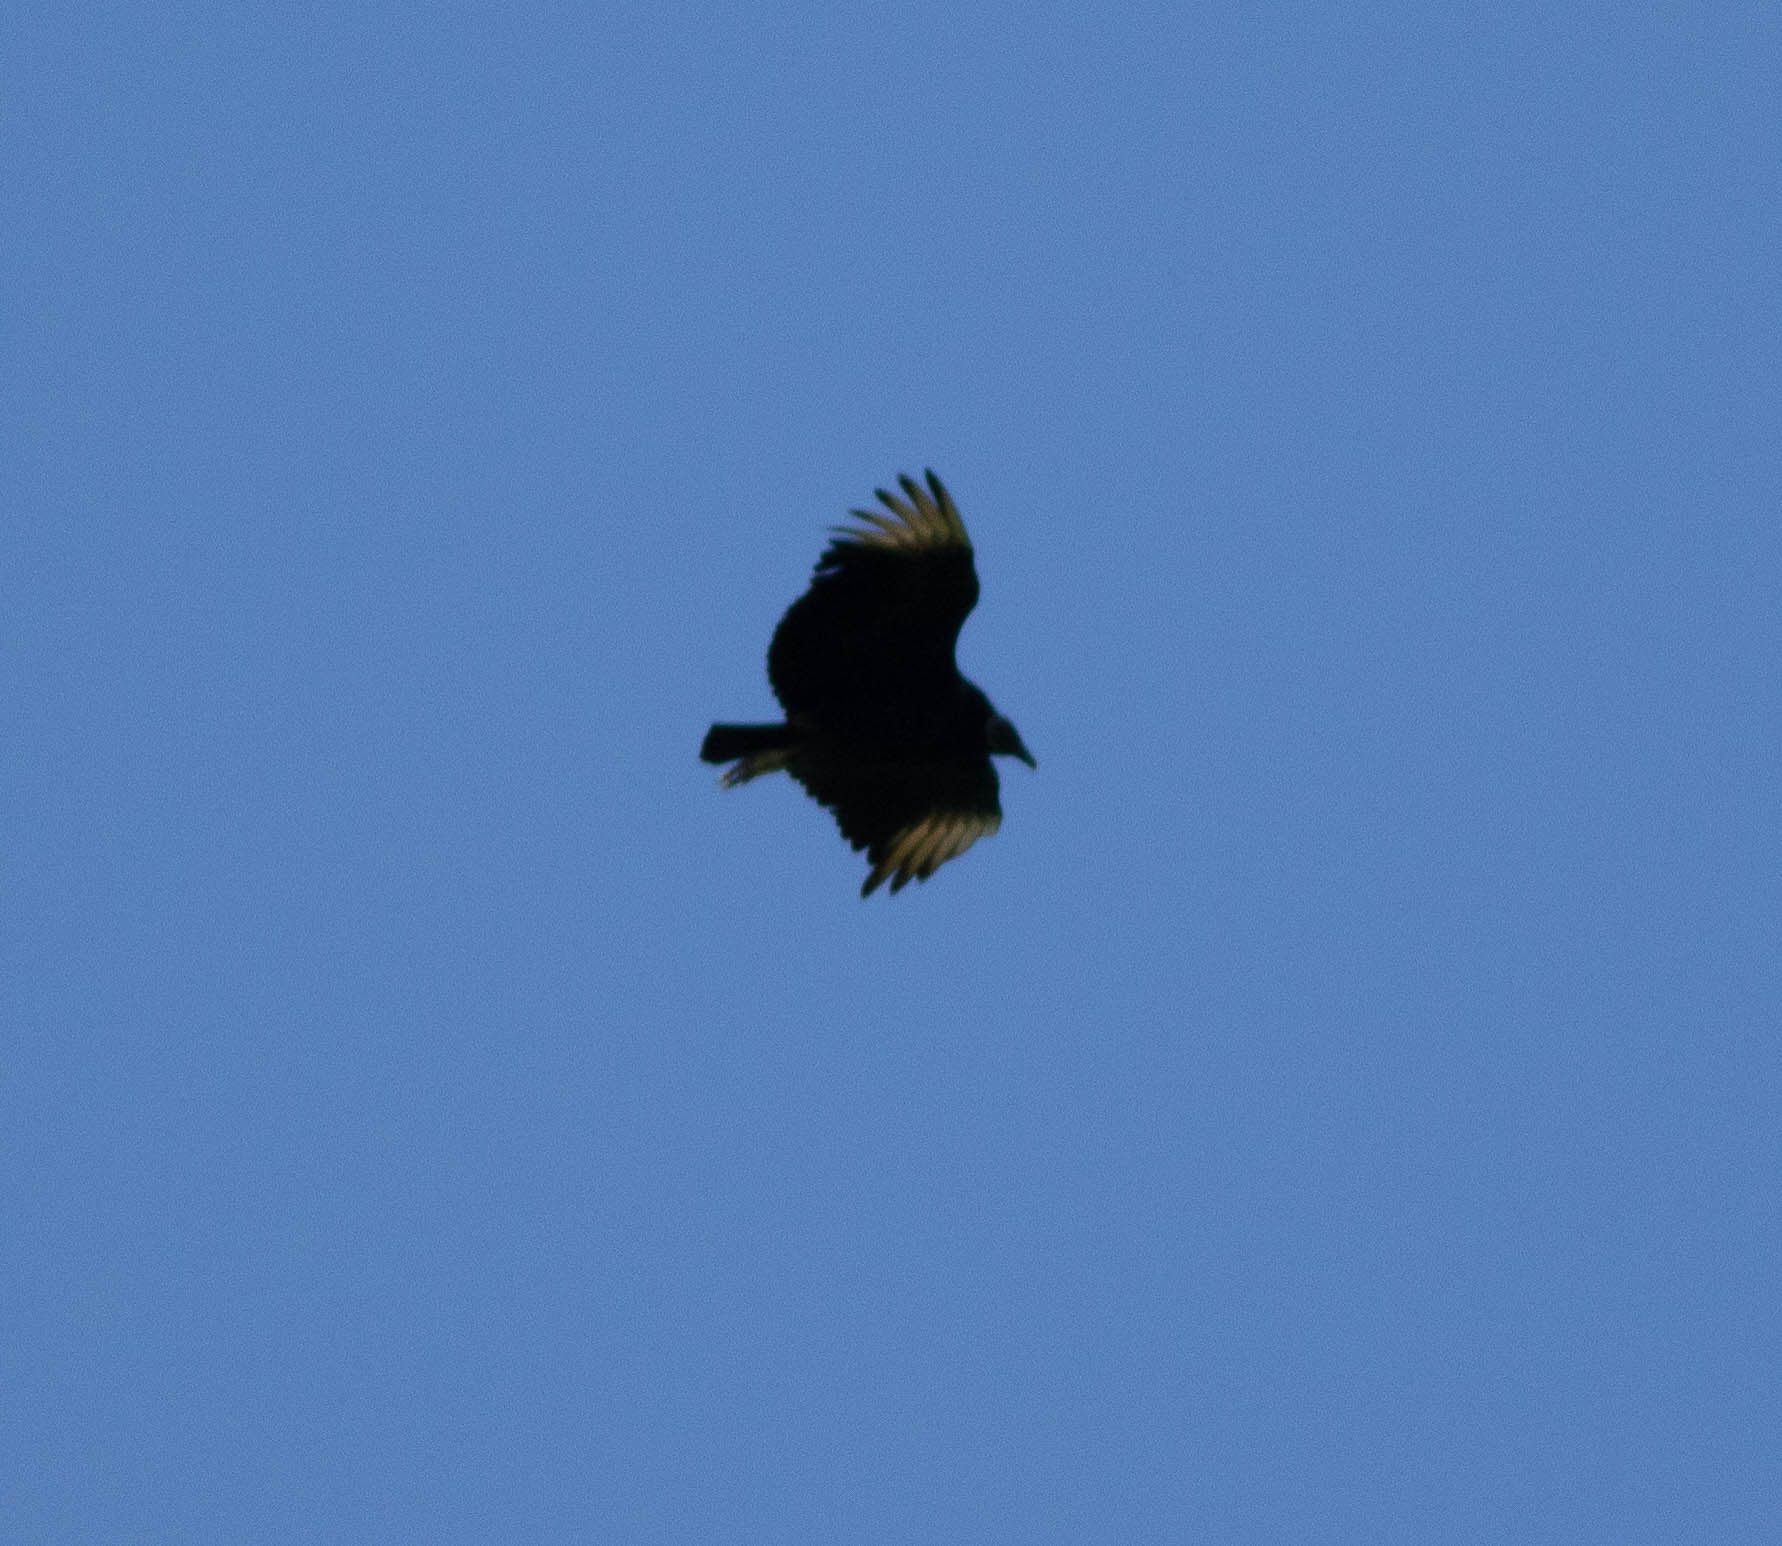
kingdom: Animalia
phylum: Chordata
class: Aves
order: Accipitriformes
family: Cathartidae
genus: Coragyps
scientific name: Coragyps atratus
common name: Black vulture
